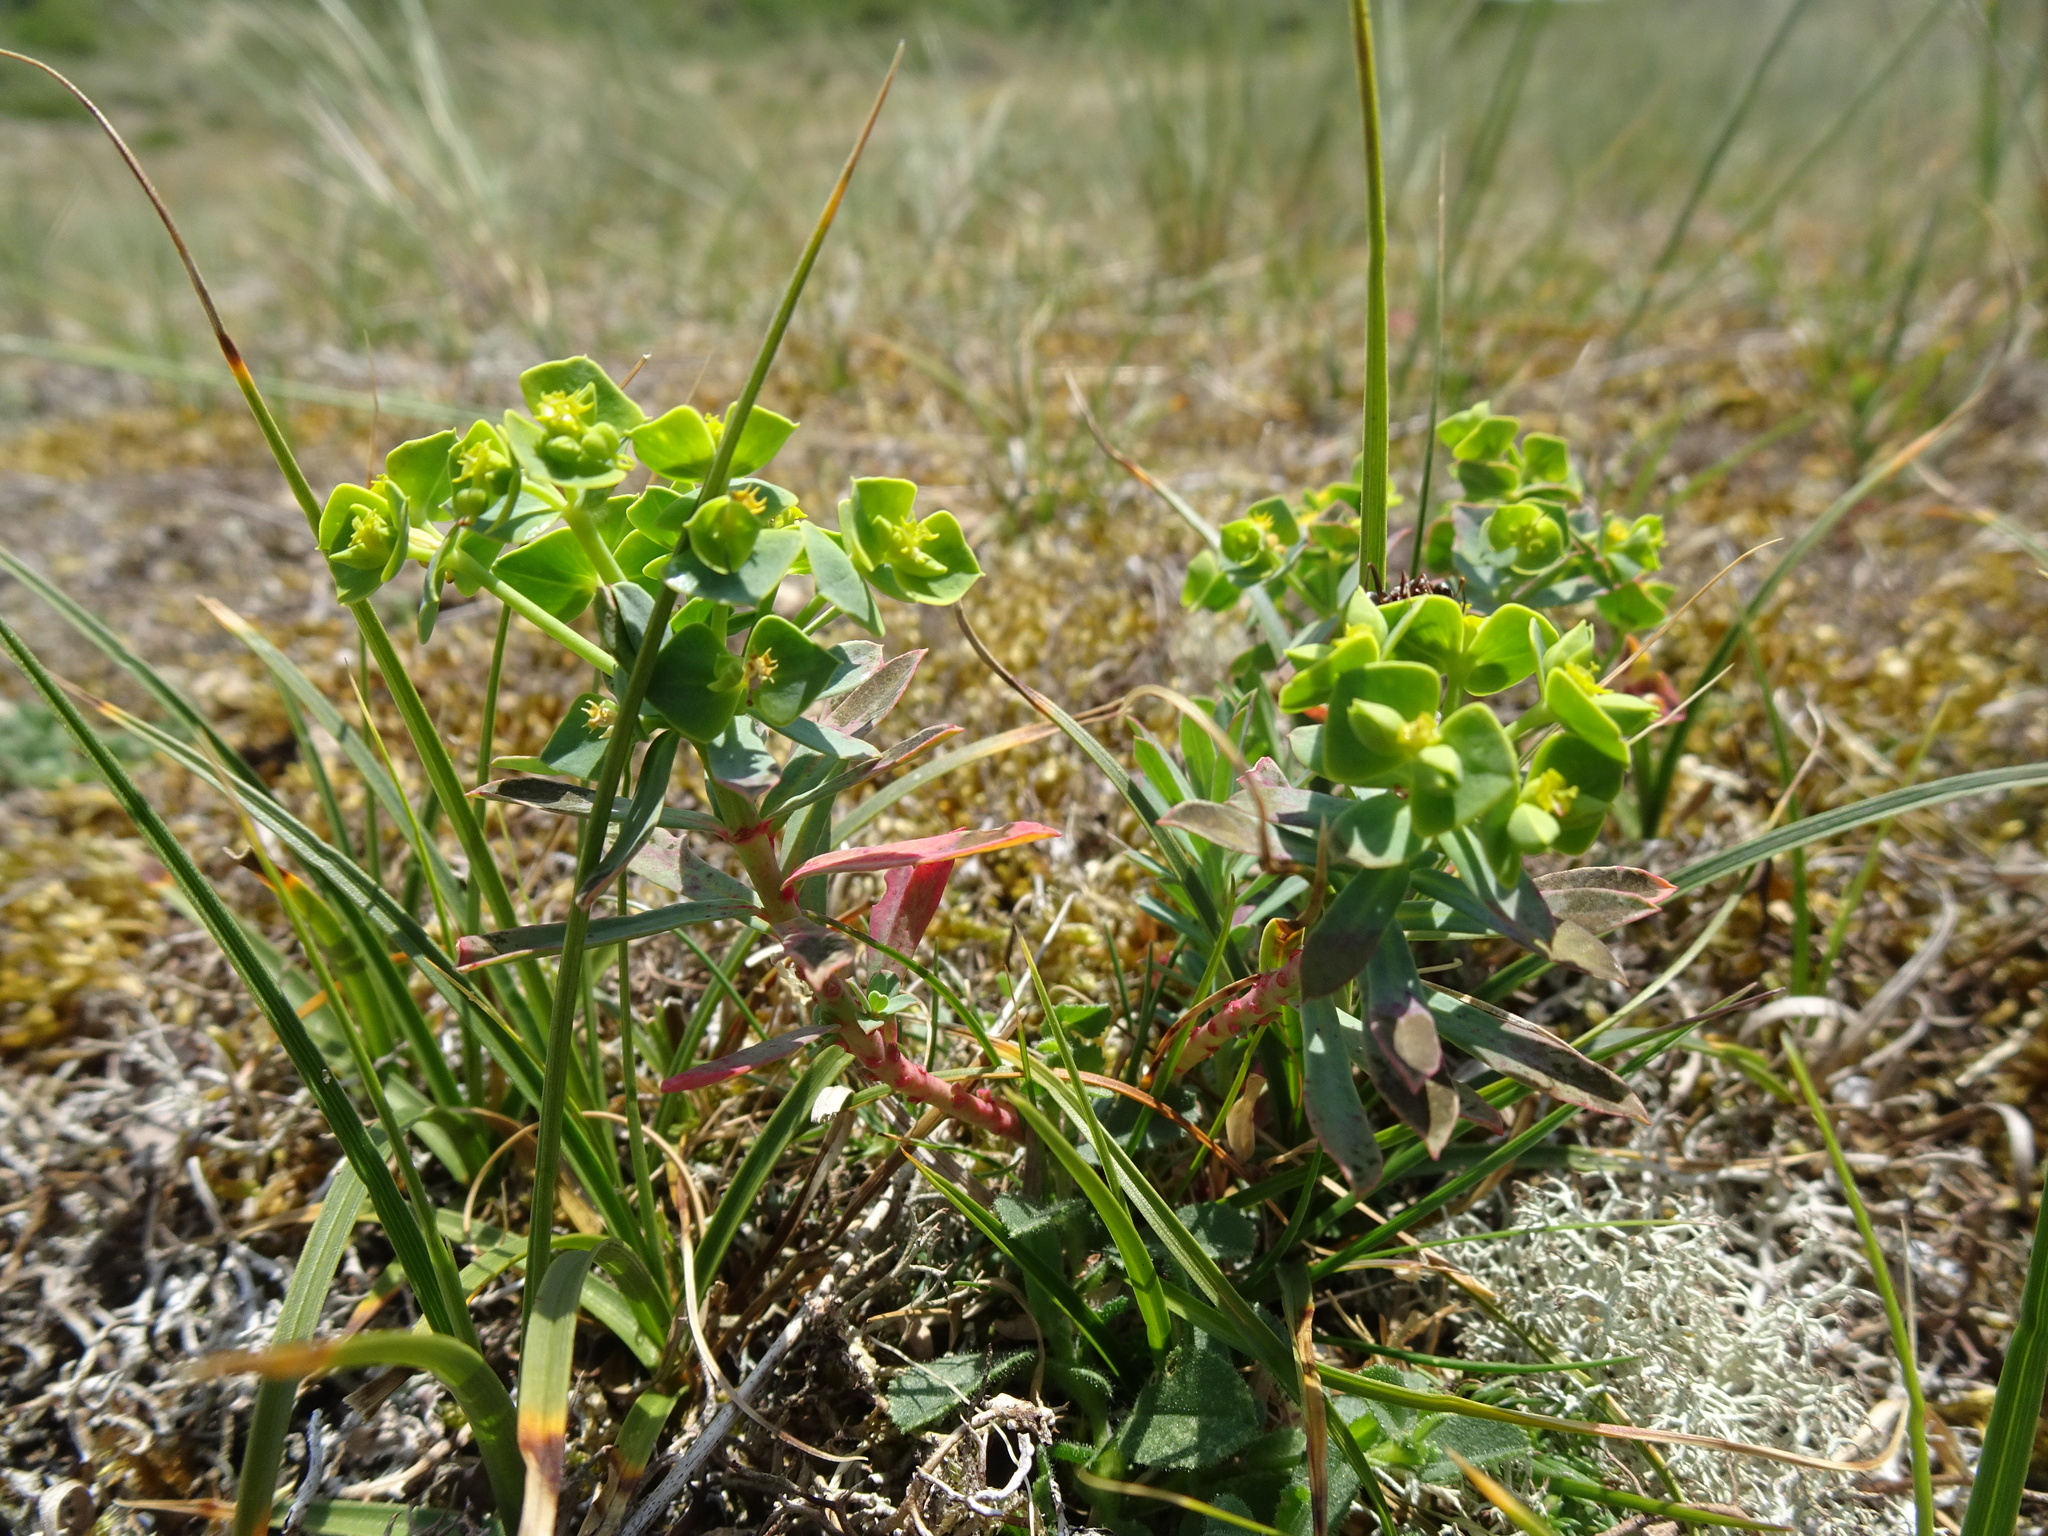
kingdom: Plantae
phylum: Tracheophyta
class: Magnoliopsida
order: Malpighiales
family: Euphorbiaceae
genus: Euphorbia
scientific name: Euphorbia portlandica
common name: Portland spurge
